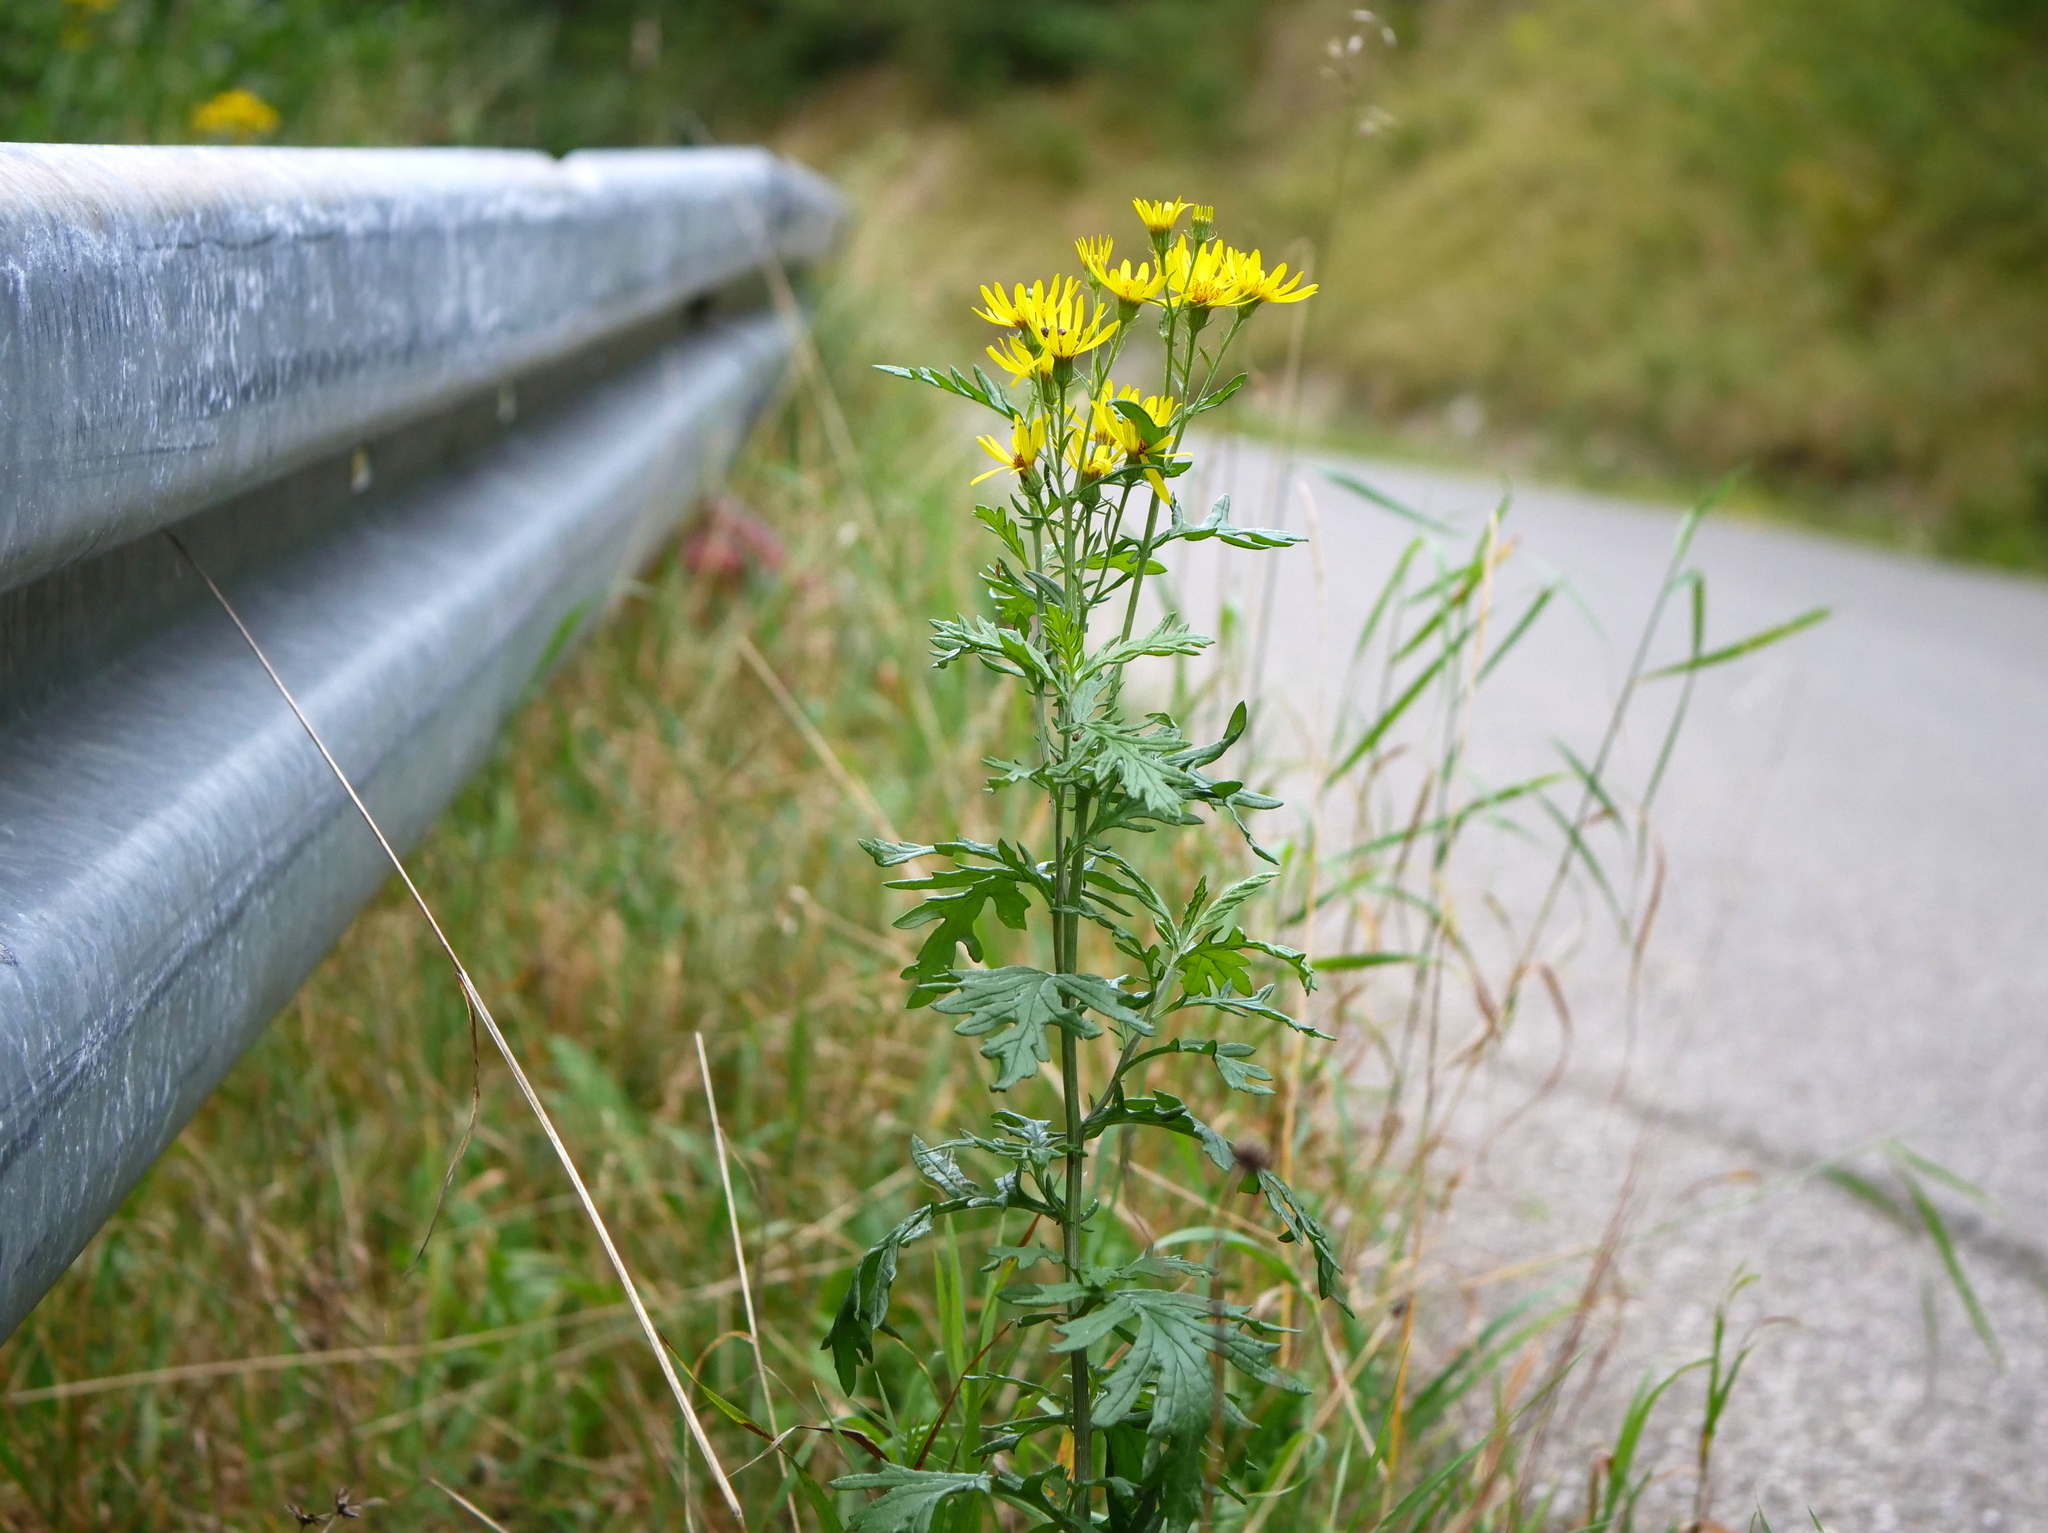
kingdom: Plantae
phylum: Tracheophyta
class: Magnoliopsida
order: Asterales
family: Asteraceae
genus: Jacobaea
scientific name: Jacobaea erucifolia
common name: Hoary ragwort
